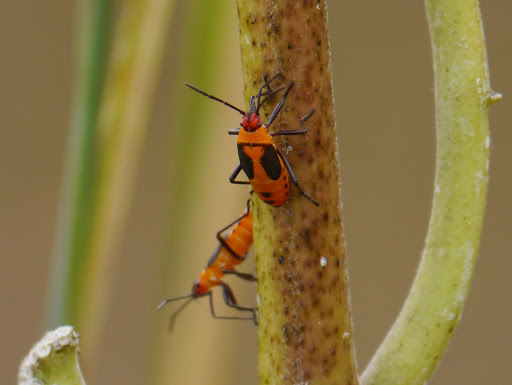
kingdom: Animalia
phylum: Arthropoda
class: Insecta
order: Hemiptera
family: Lygaeidae
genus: Oncopeltus
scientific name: Oncopeltus fasciatus
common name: Large milkweed bug
